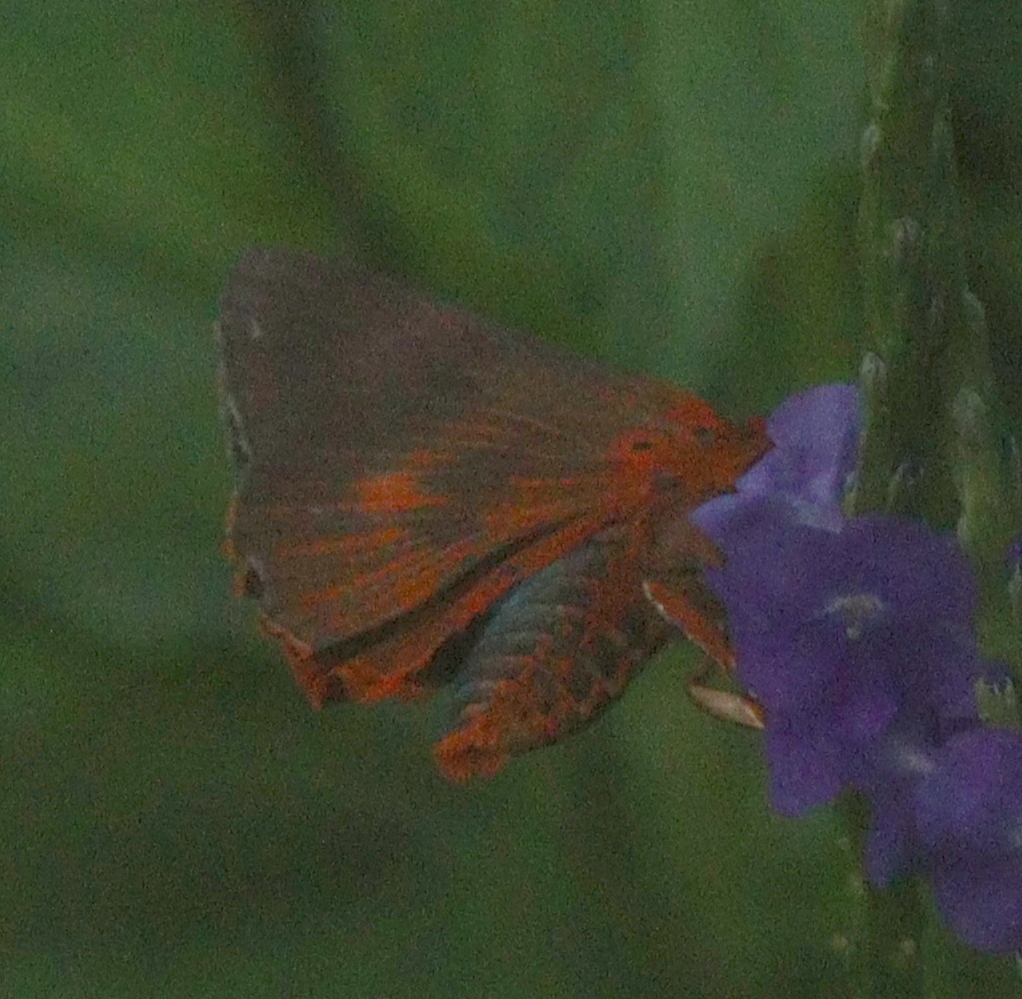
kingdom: Animalia
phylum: Arthropoda
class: Insecta
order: Lepidoptera
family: Hesperiidae
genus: Bibasis
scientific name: Bibasis oedipodea
